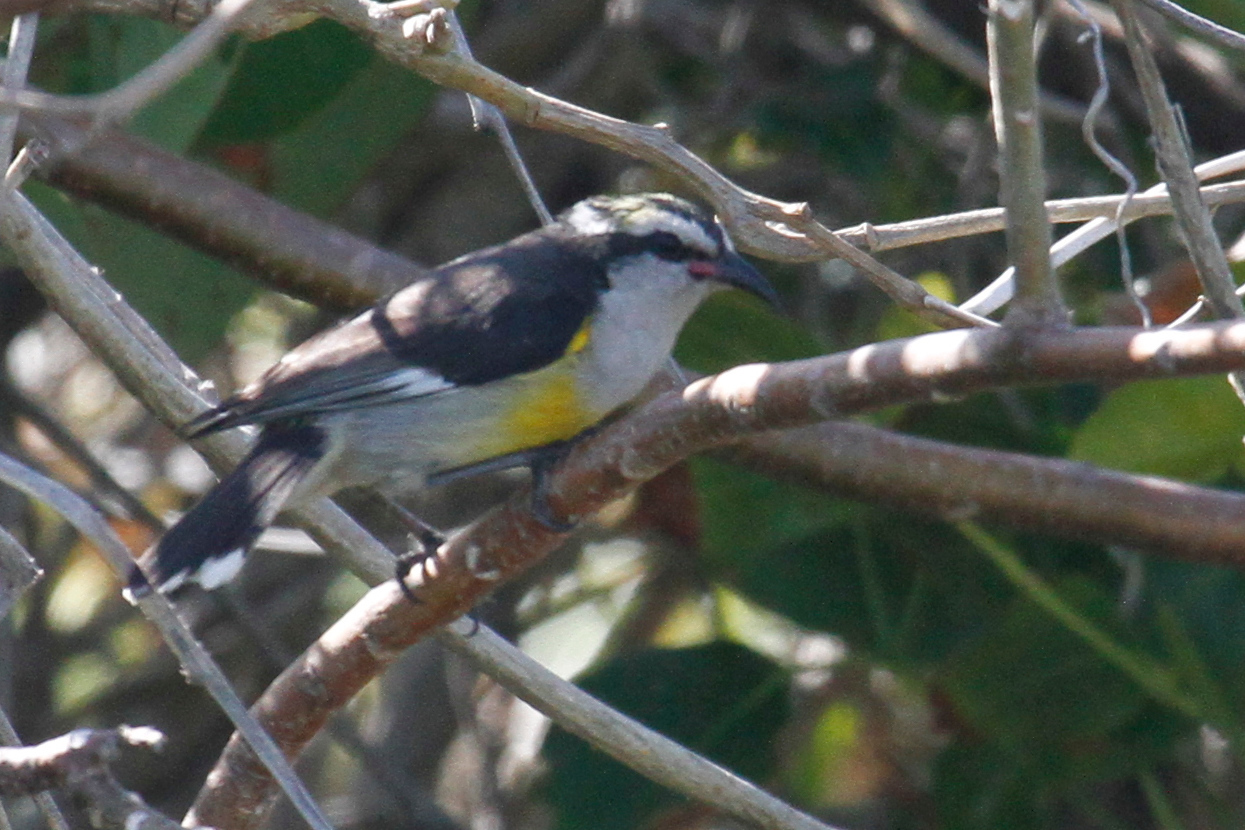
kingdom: Animalia
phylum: Chordata
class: Aves
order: Passeriformes
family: Thraupidae
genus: Coereba
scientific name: Coereba flaveola
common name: Bananaquit
